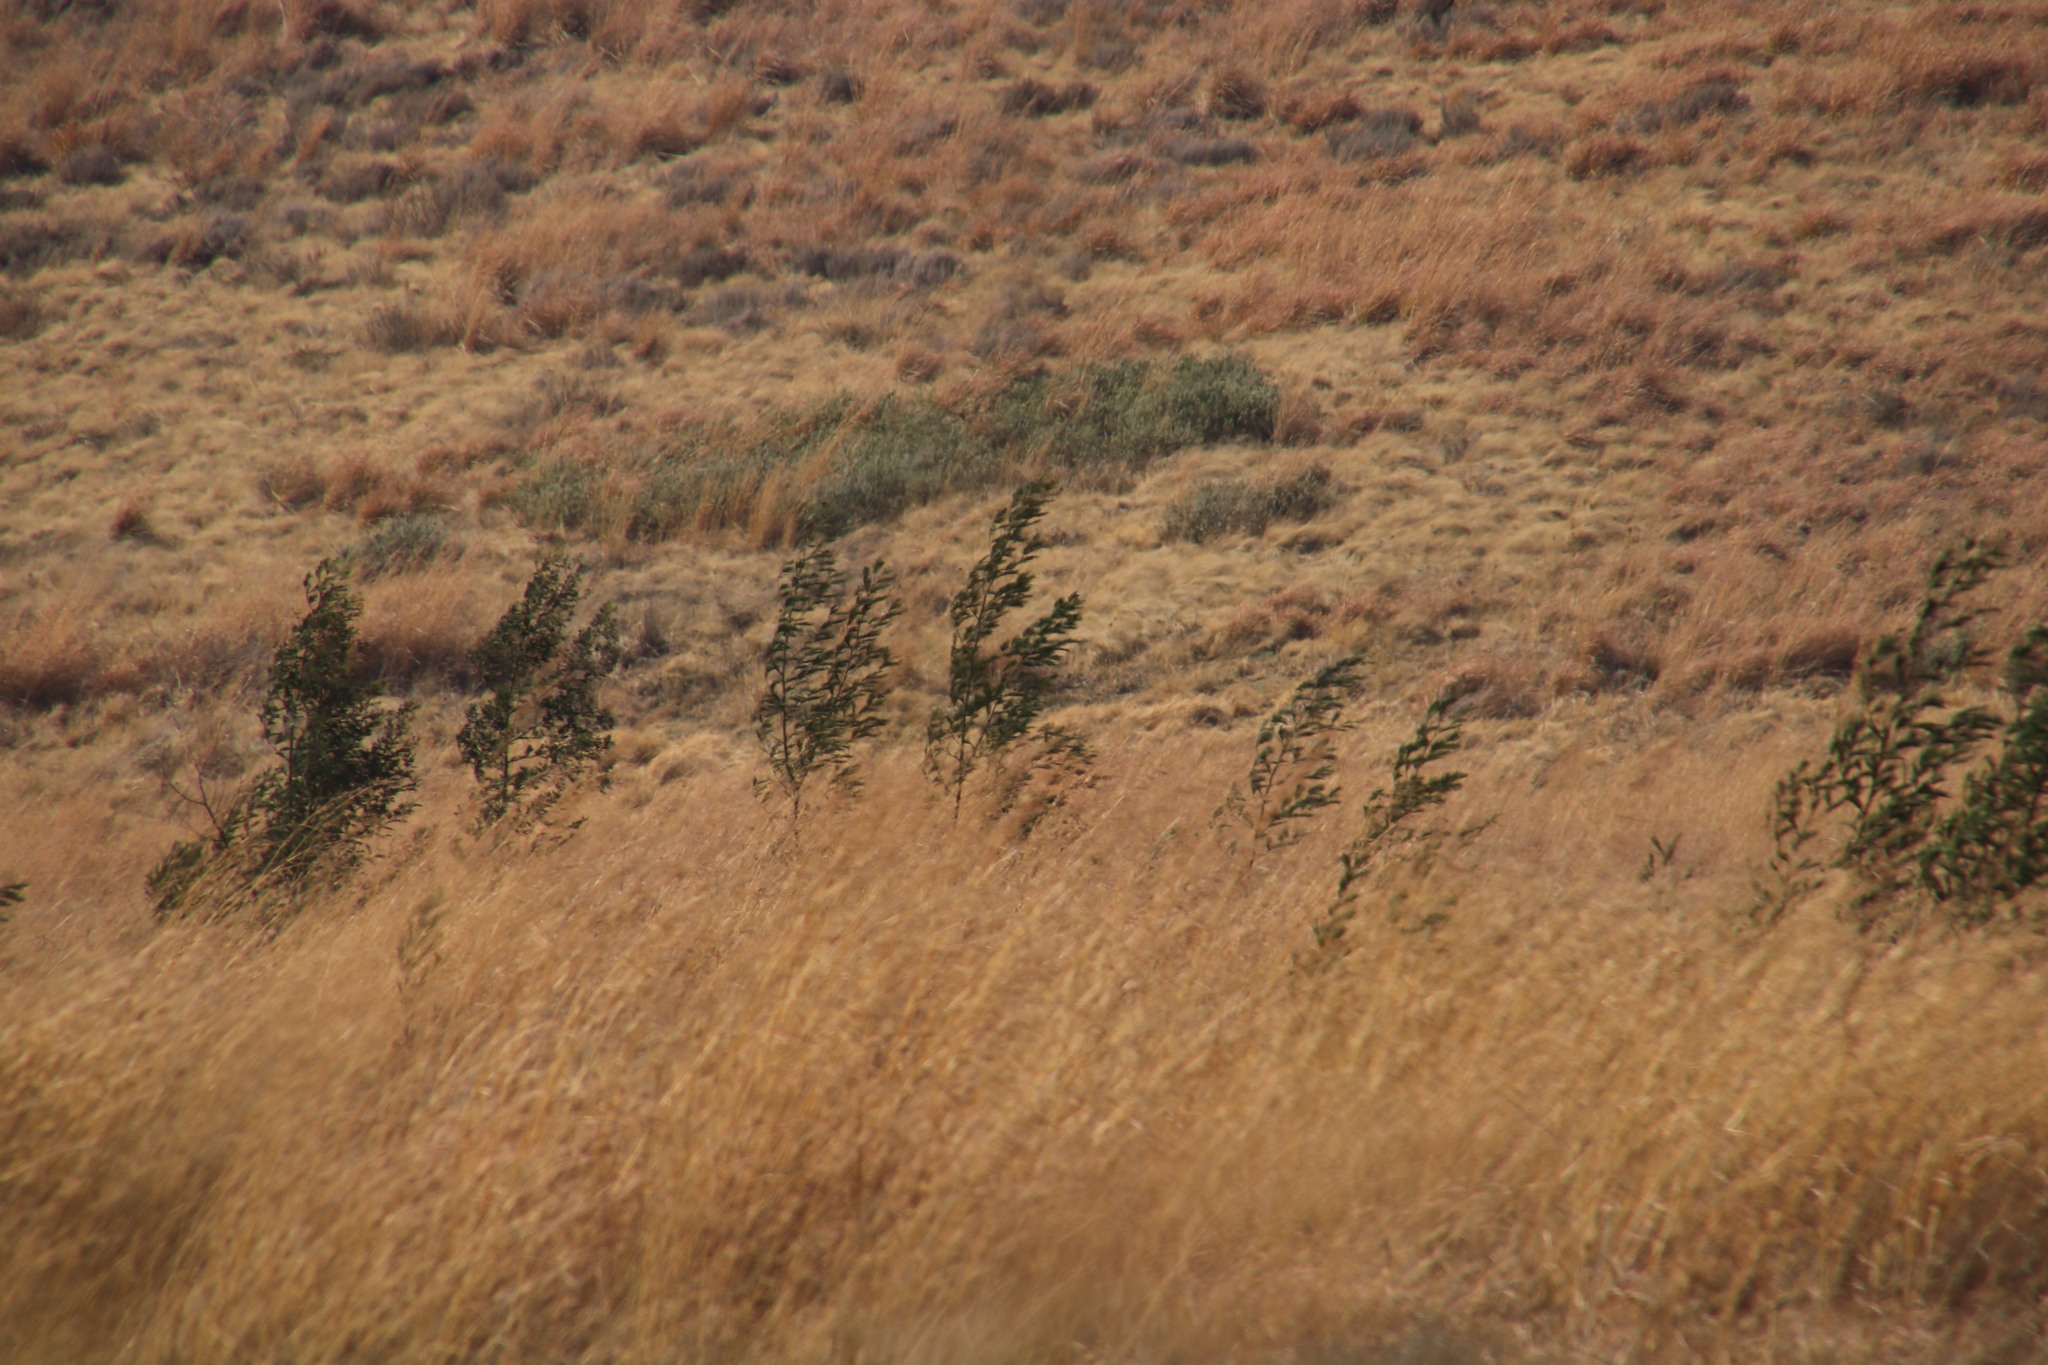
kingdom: Plantae
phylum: Tracheophyta
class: Magnoliopsida
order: Fabales
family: Fabaceae
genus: Acacia
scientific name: Acacia mearnsii
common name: Black wattle
